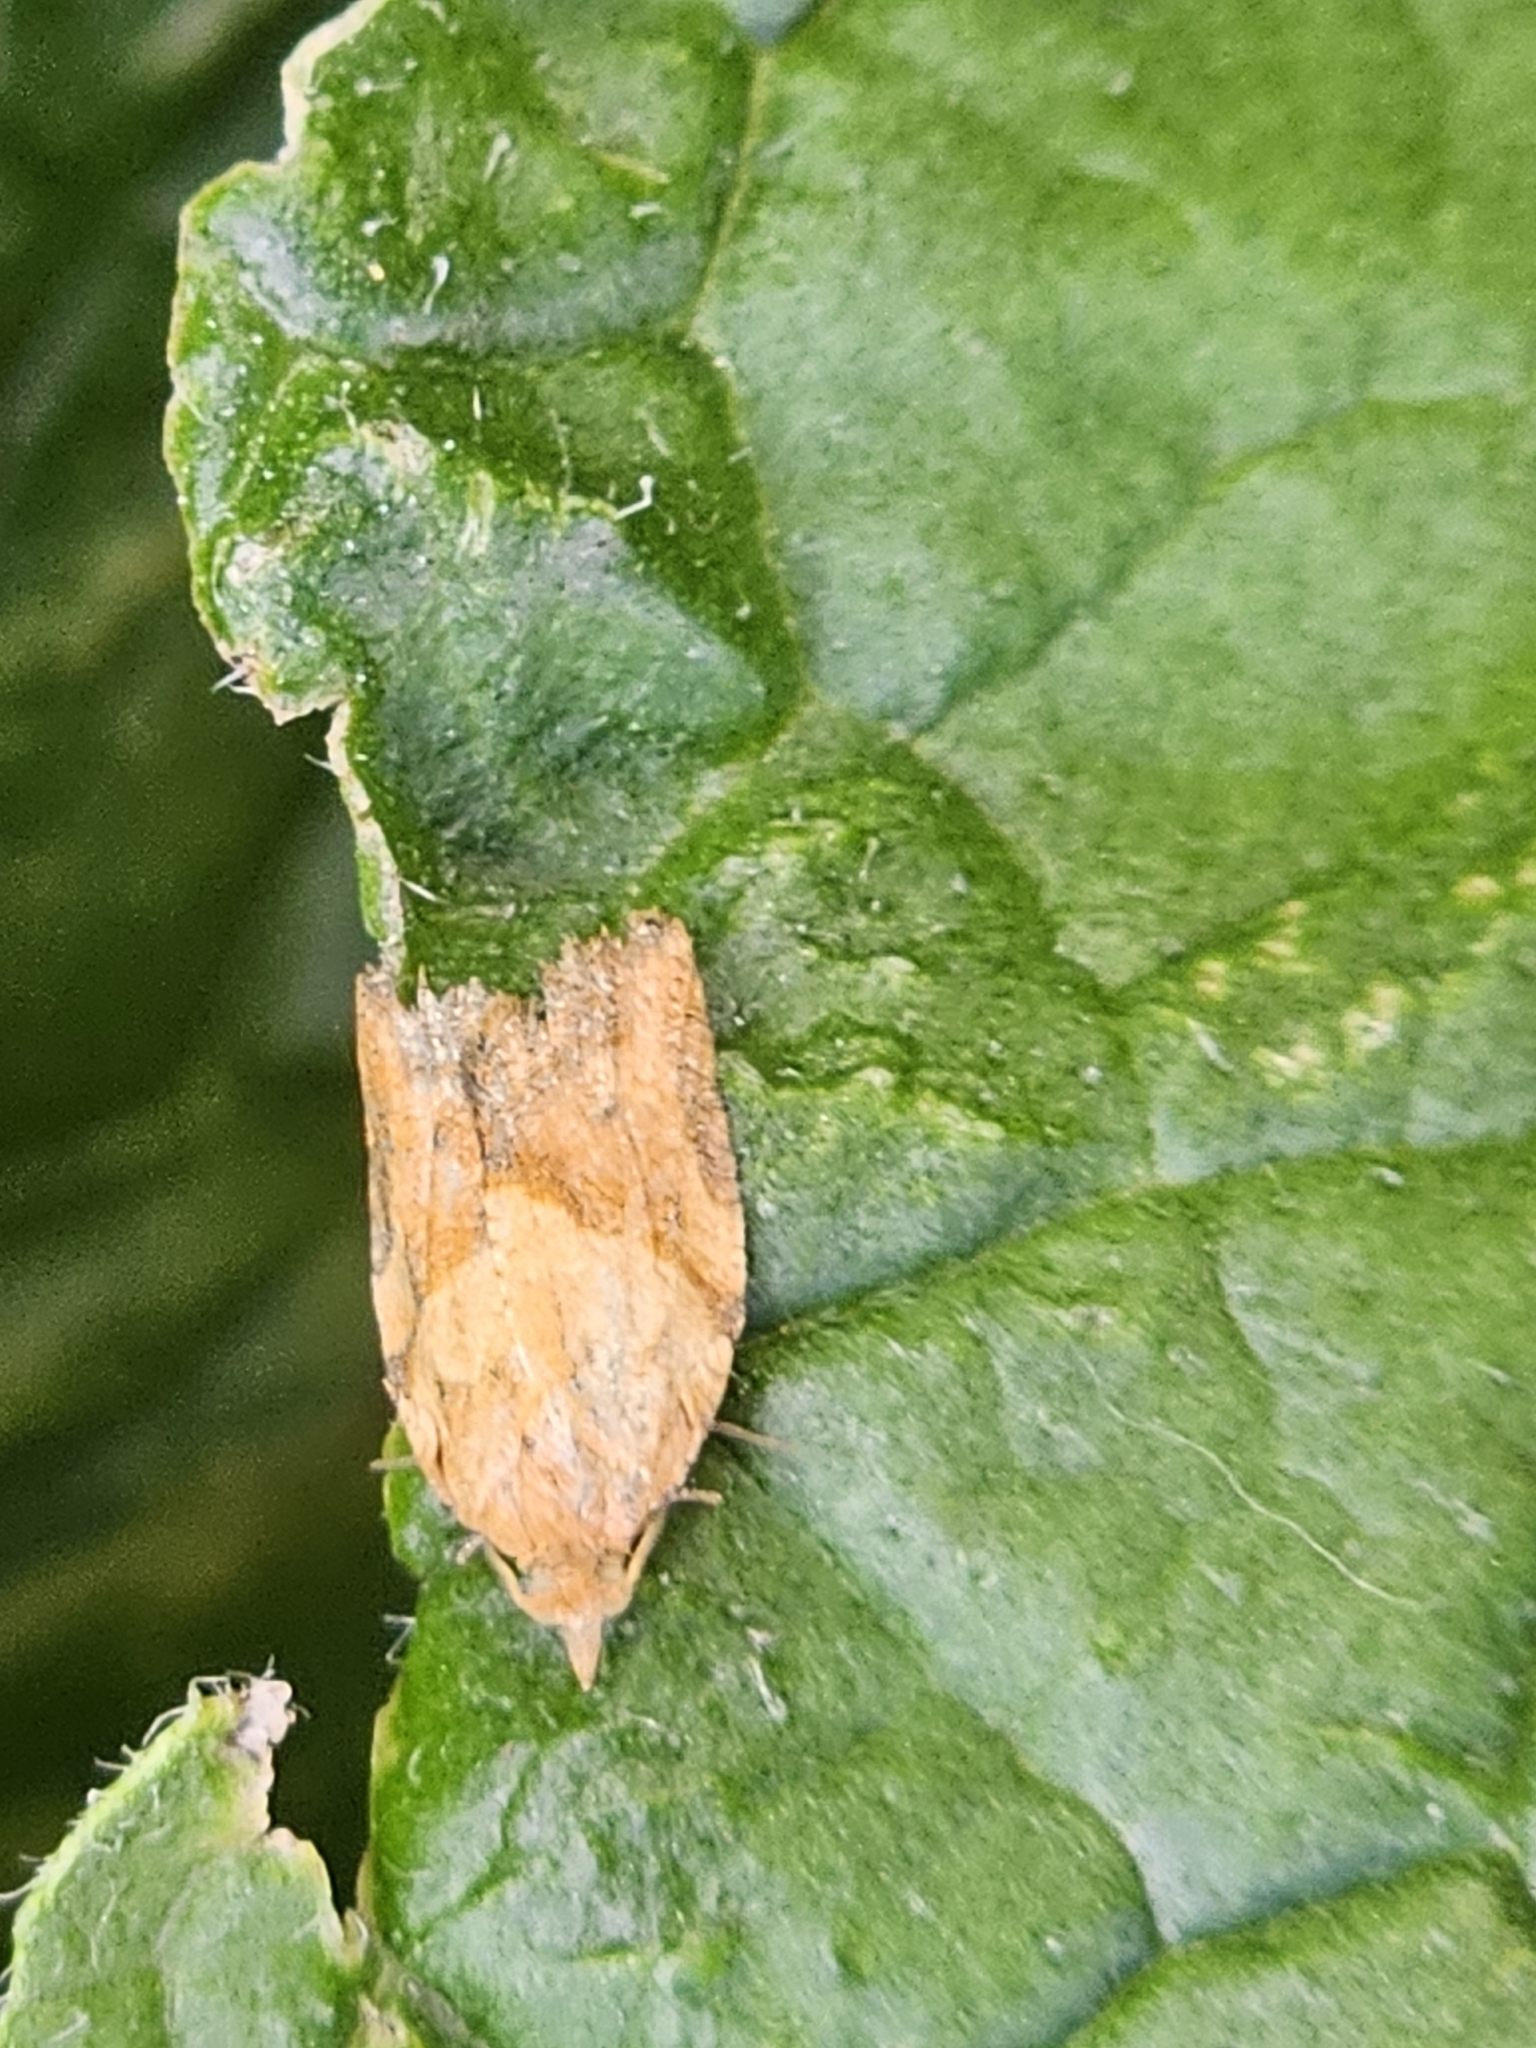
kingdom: Animalia
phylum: Arthropoda
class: Insecta
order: Lepidoptera
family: Tortricidae
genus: Epiphyas
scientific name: Epiphyas postvittana
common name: Light brown apple moth
